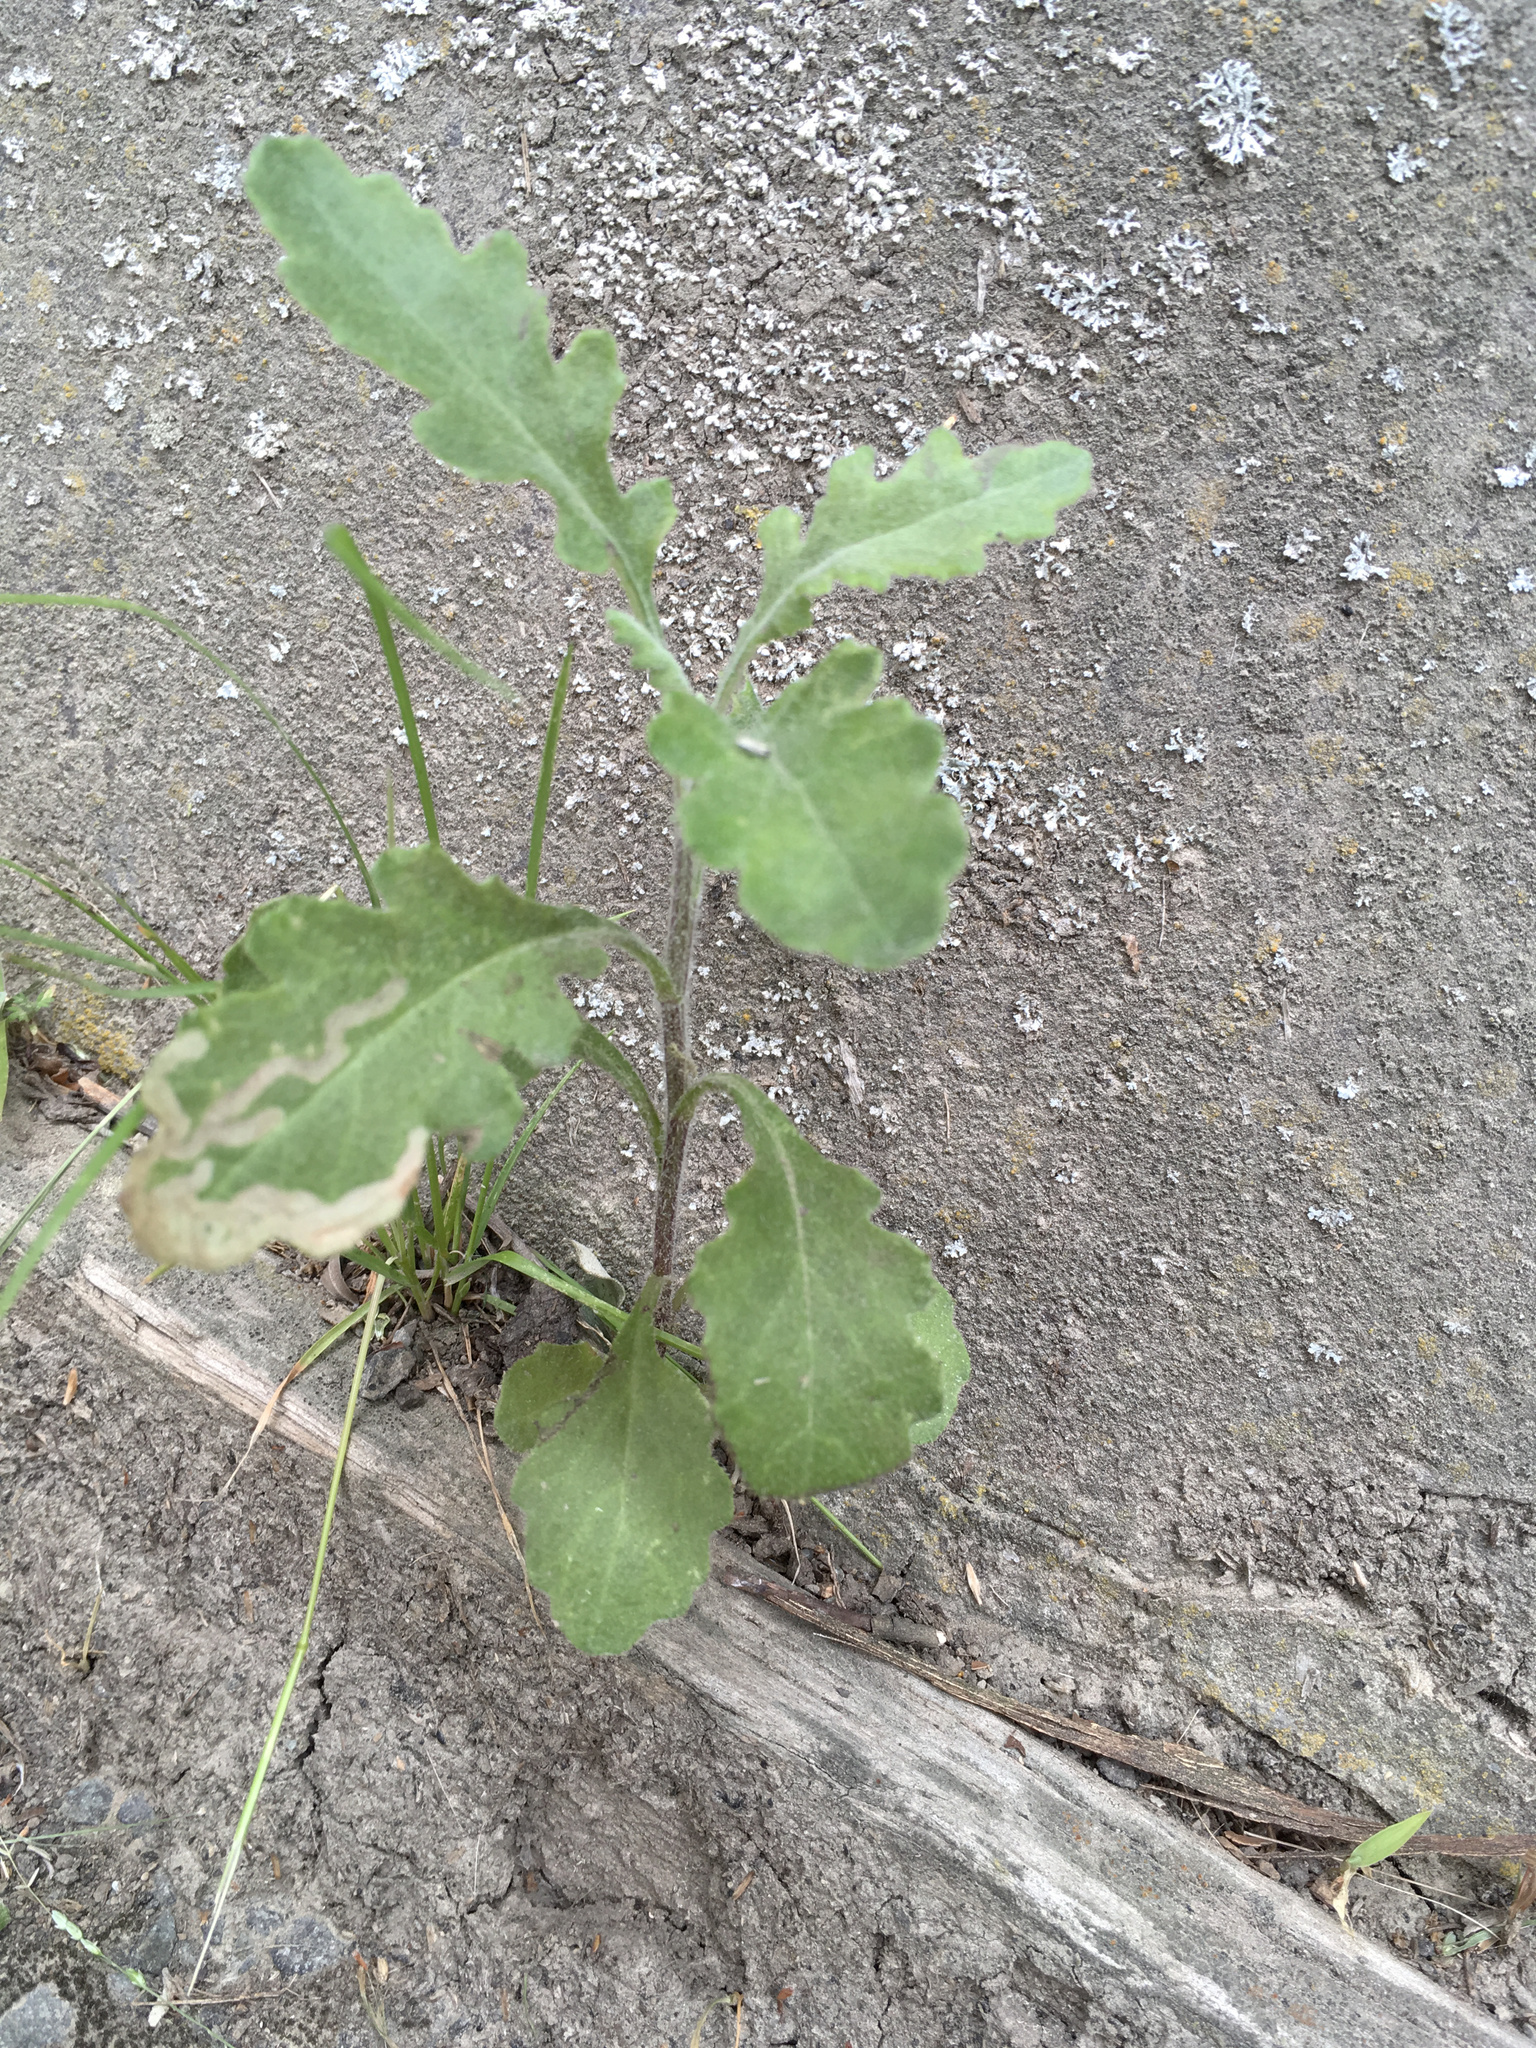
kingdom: Plantae
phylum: Tracheophyta
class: Magnoliopsida
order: Asterales
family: Asteraceae
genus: Senecio
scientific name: Senecio glomeratus
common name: Cutleaf burnweed
